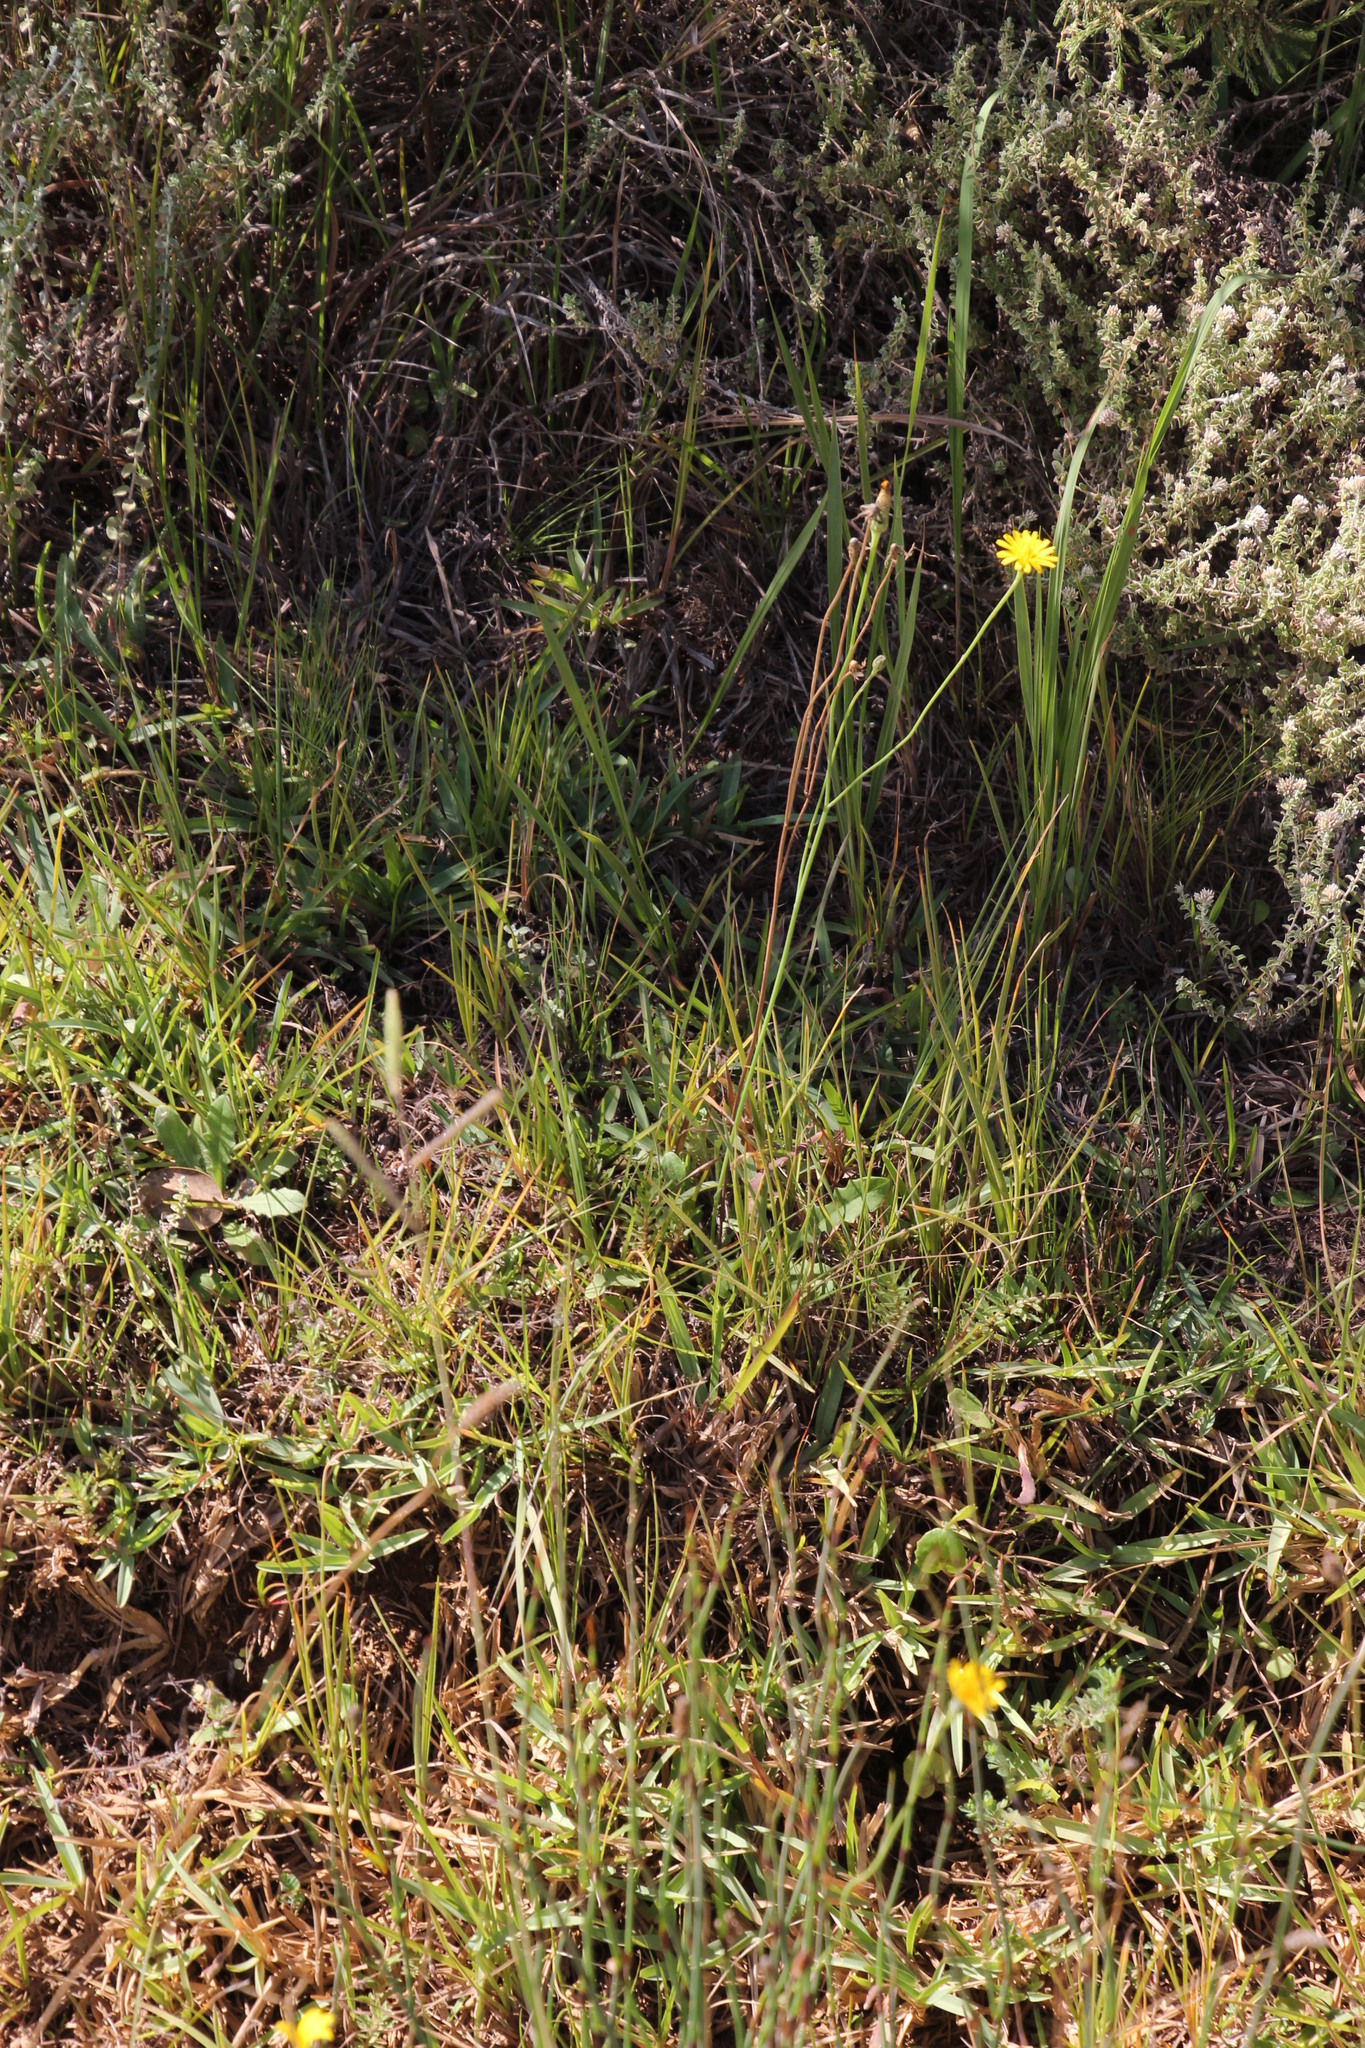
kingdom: Plantae
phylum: Tracheophyta
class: Magnoliopsida
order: Asterales
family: Asteraceae
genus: Hypochaeris
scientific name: Hypochaeris radicata
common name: Flatweed
